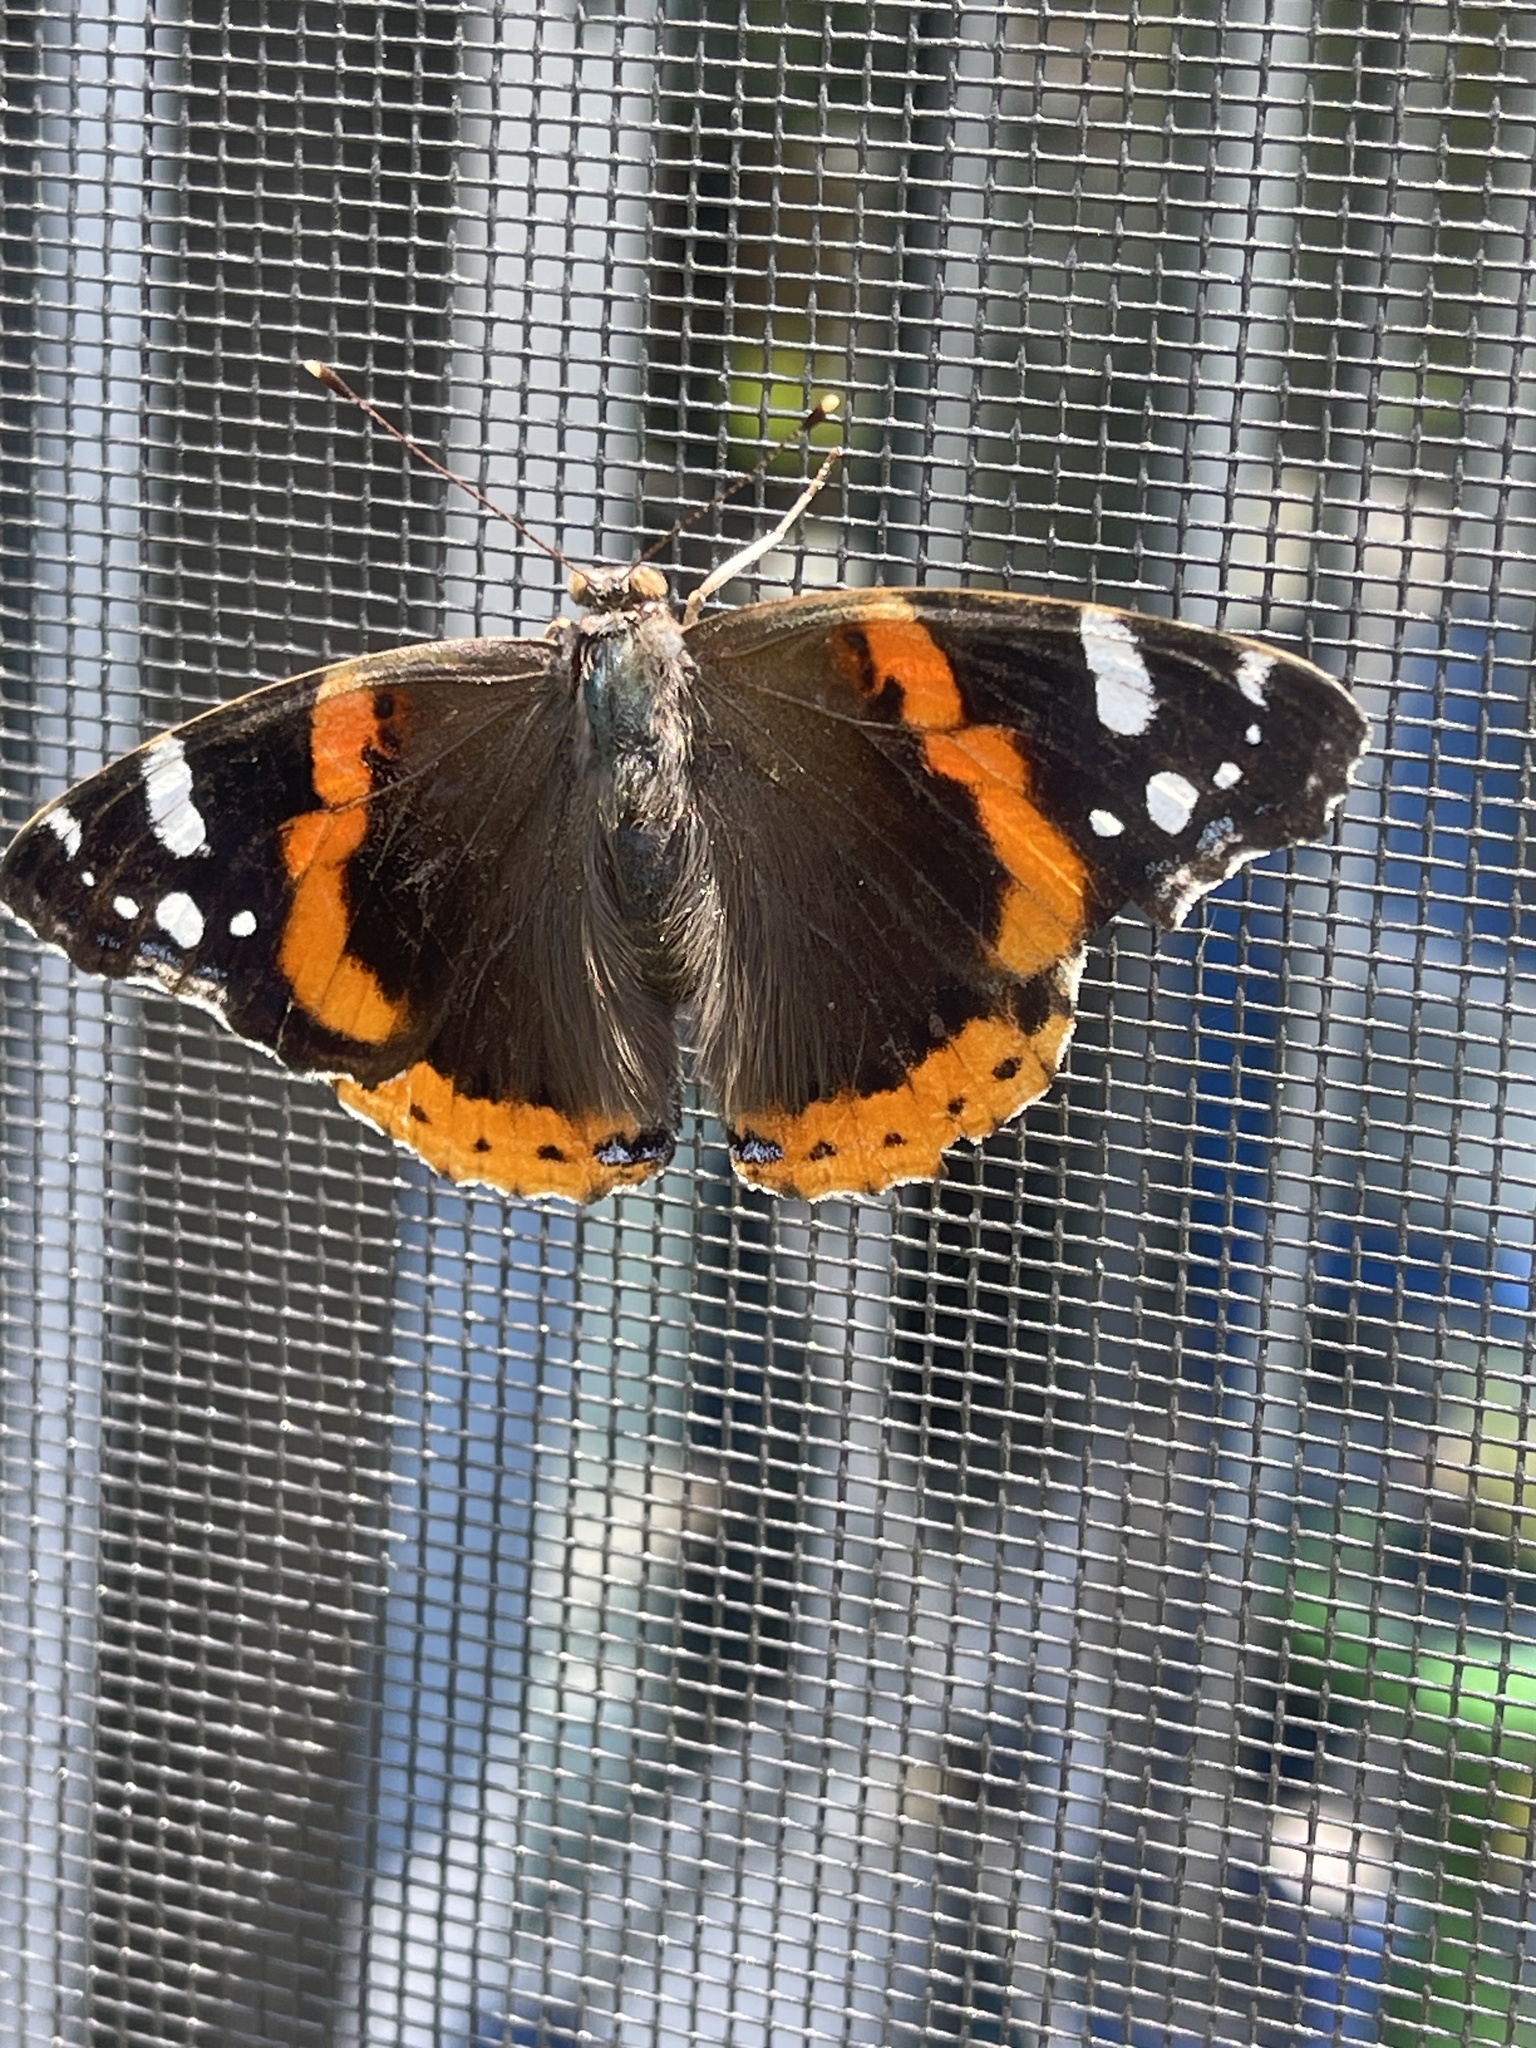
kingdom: Animalia
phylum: Arthropoda
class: Insecta
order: Lepidoptera
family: Nymphalidae
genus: Vanessa
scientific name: Vanessa atalanta
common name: Red admiral
